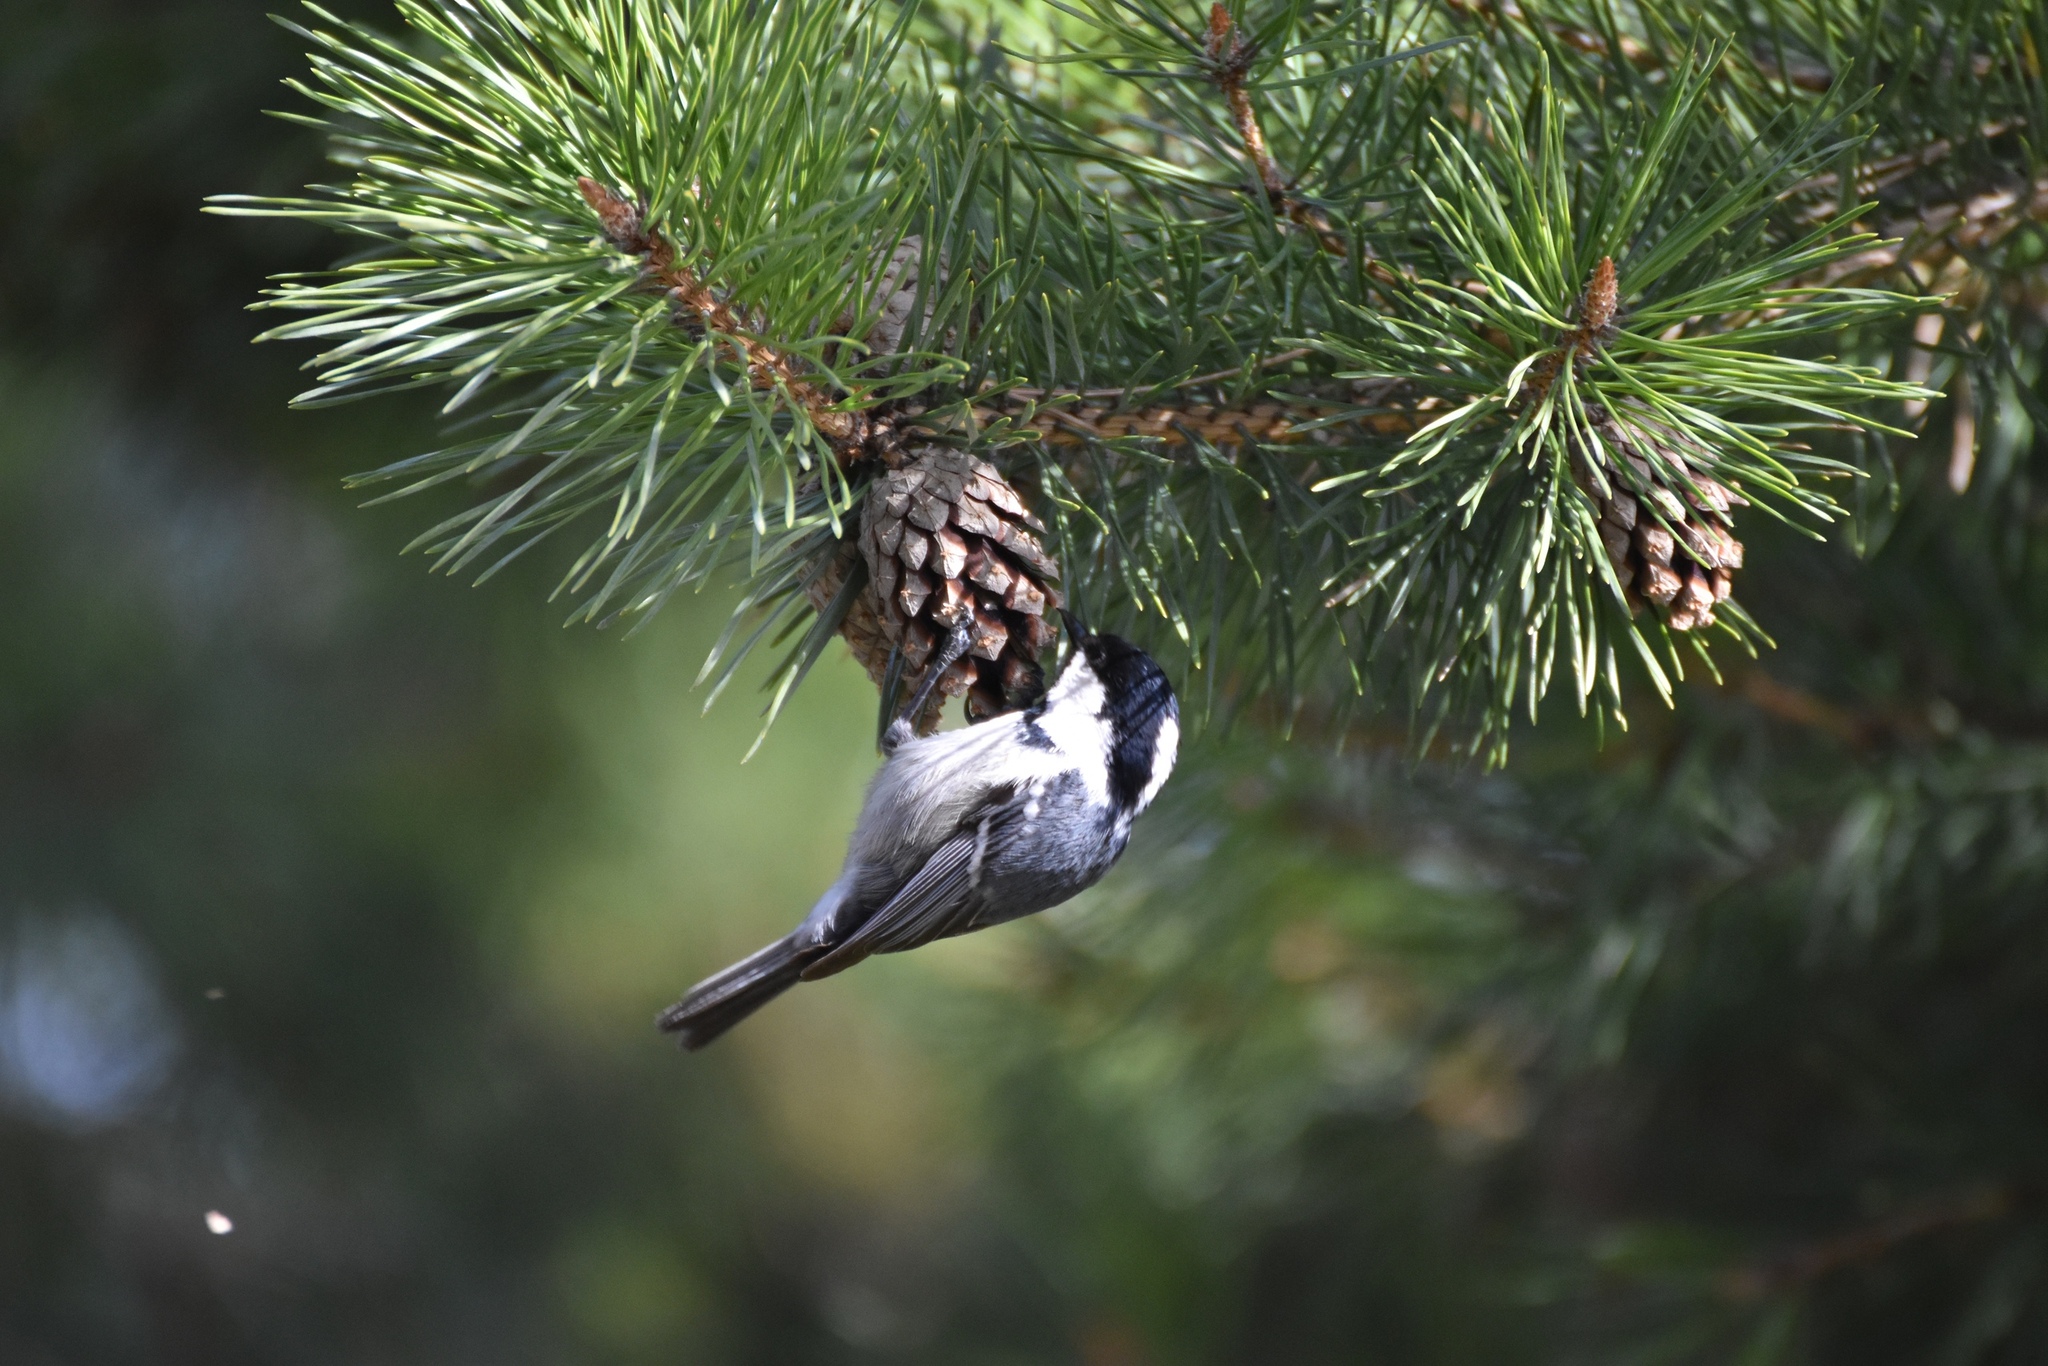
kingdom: Animalia
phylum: Chordata
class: Aves
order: Passeriformes
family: Paridae
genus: Periparus
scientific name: Periparus ater
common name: Coal tit
